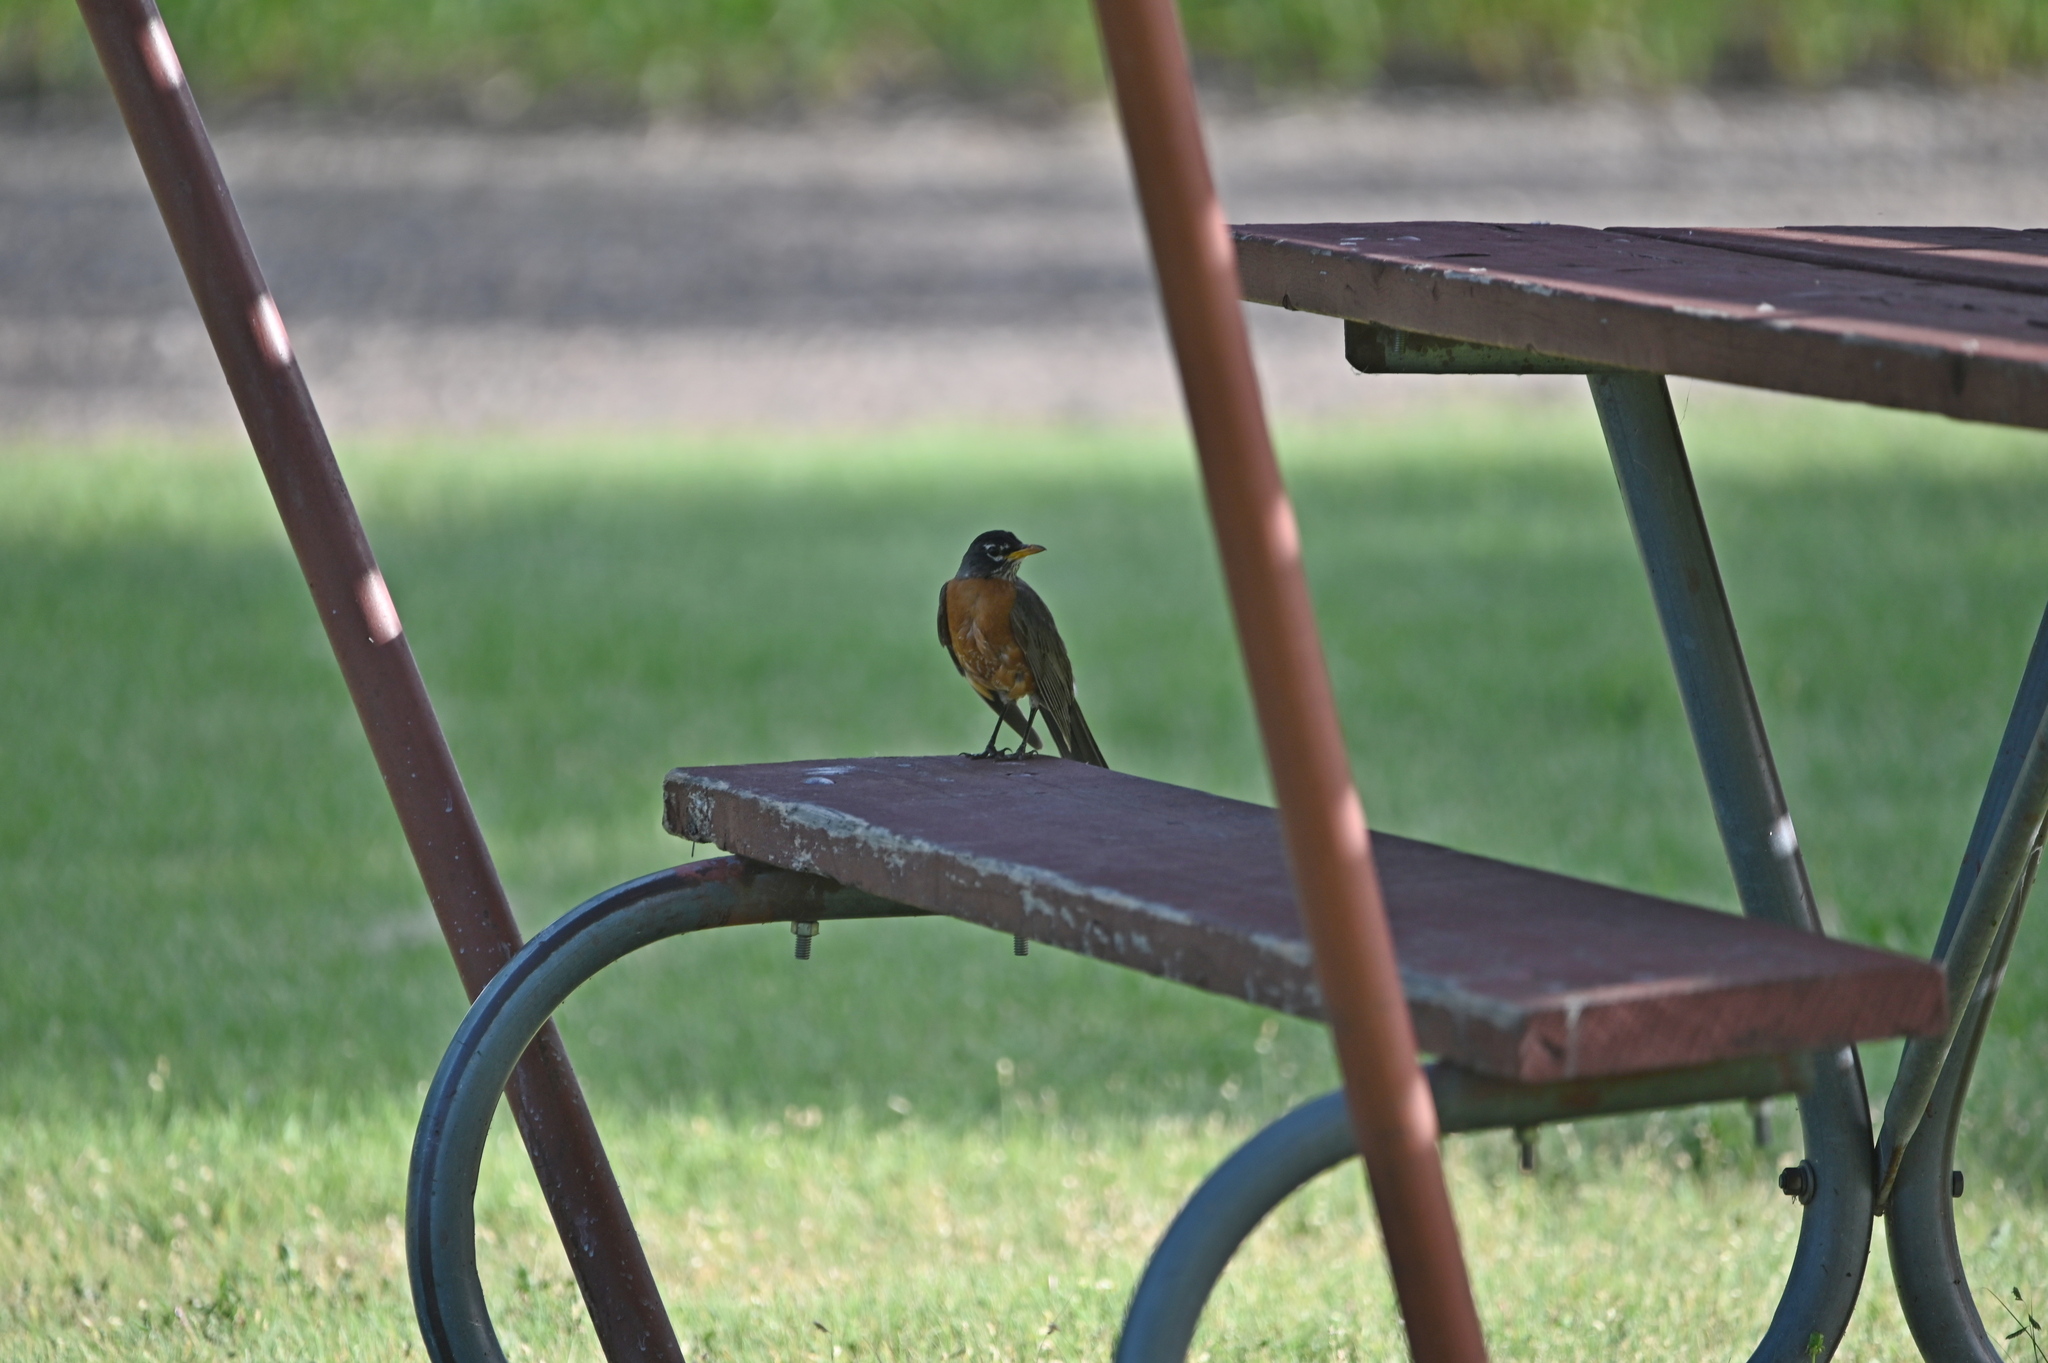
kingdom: Animalia
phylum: Chordata
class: Aves
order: Passeriformes
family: Turdidae
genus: Turdus
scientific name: Turdus migratorius
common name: American robin
